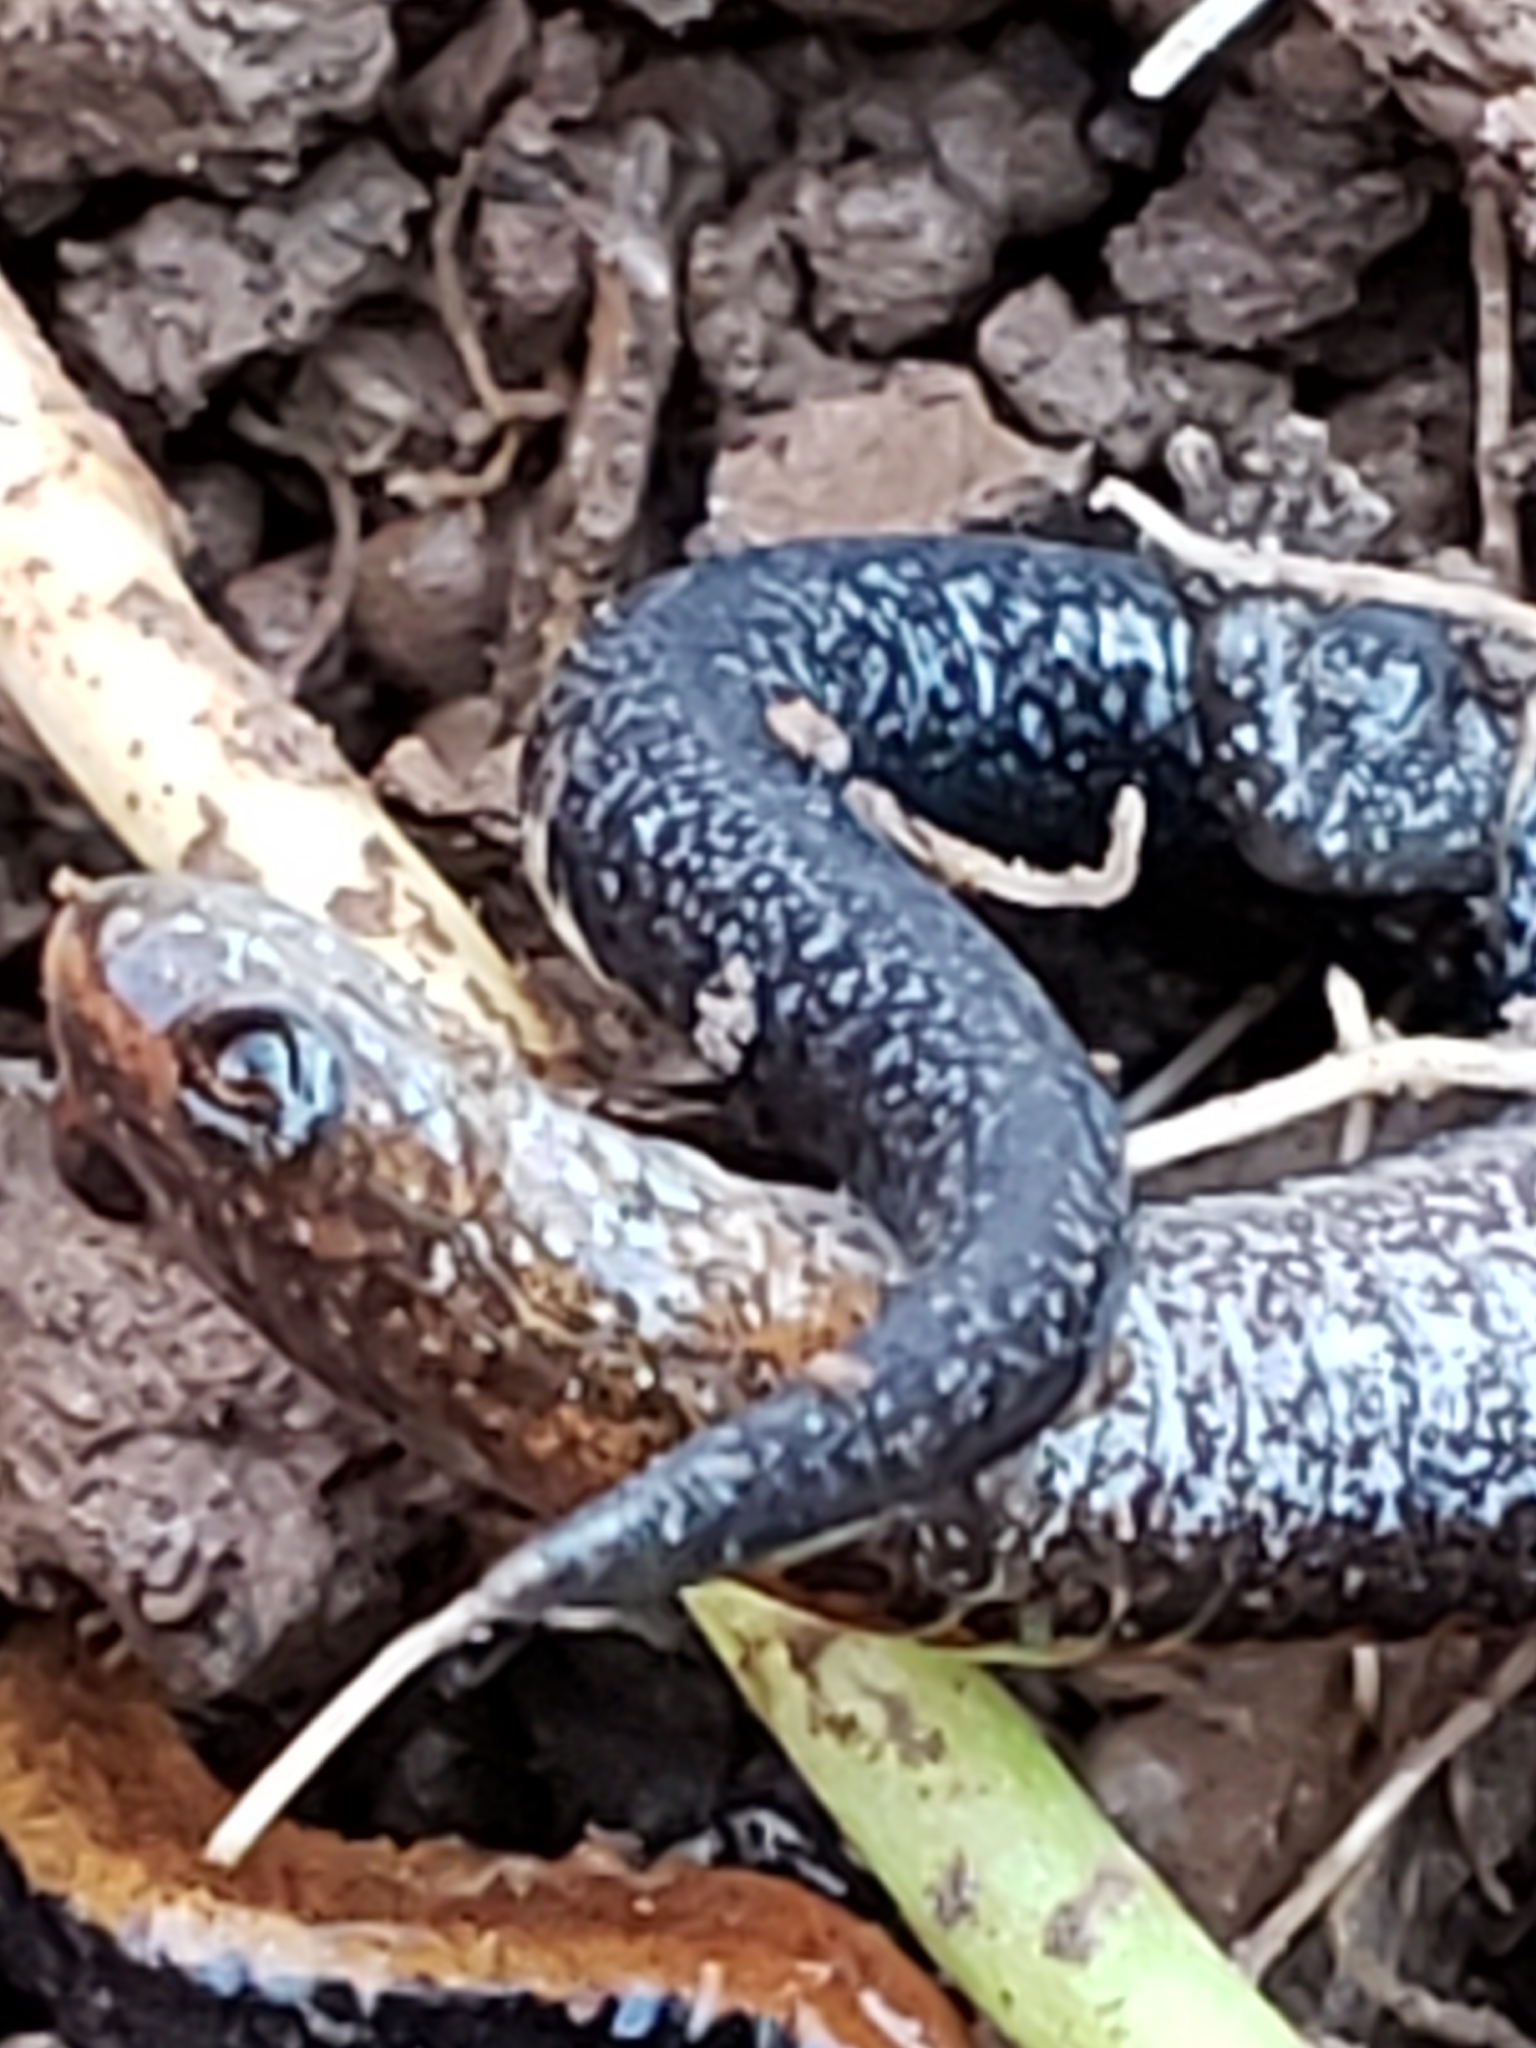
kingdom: Animalia
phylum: Chordata
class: Amphibia
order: Caudata
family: Plethodontidae
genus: Plethodon
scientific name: Plethodon cinereus
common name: Redback salamander
